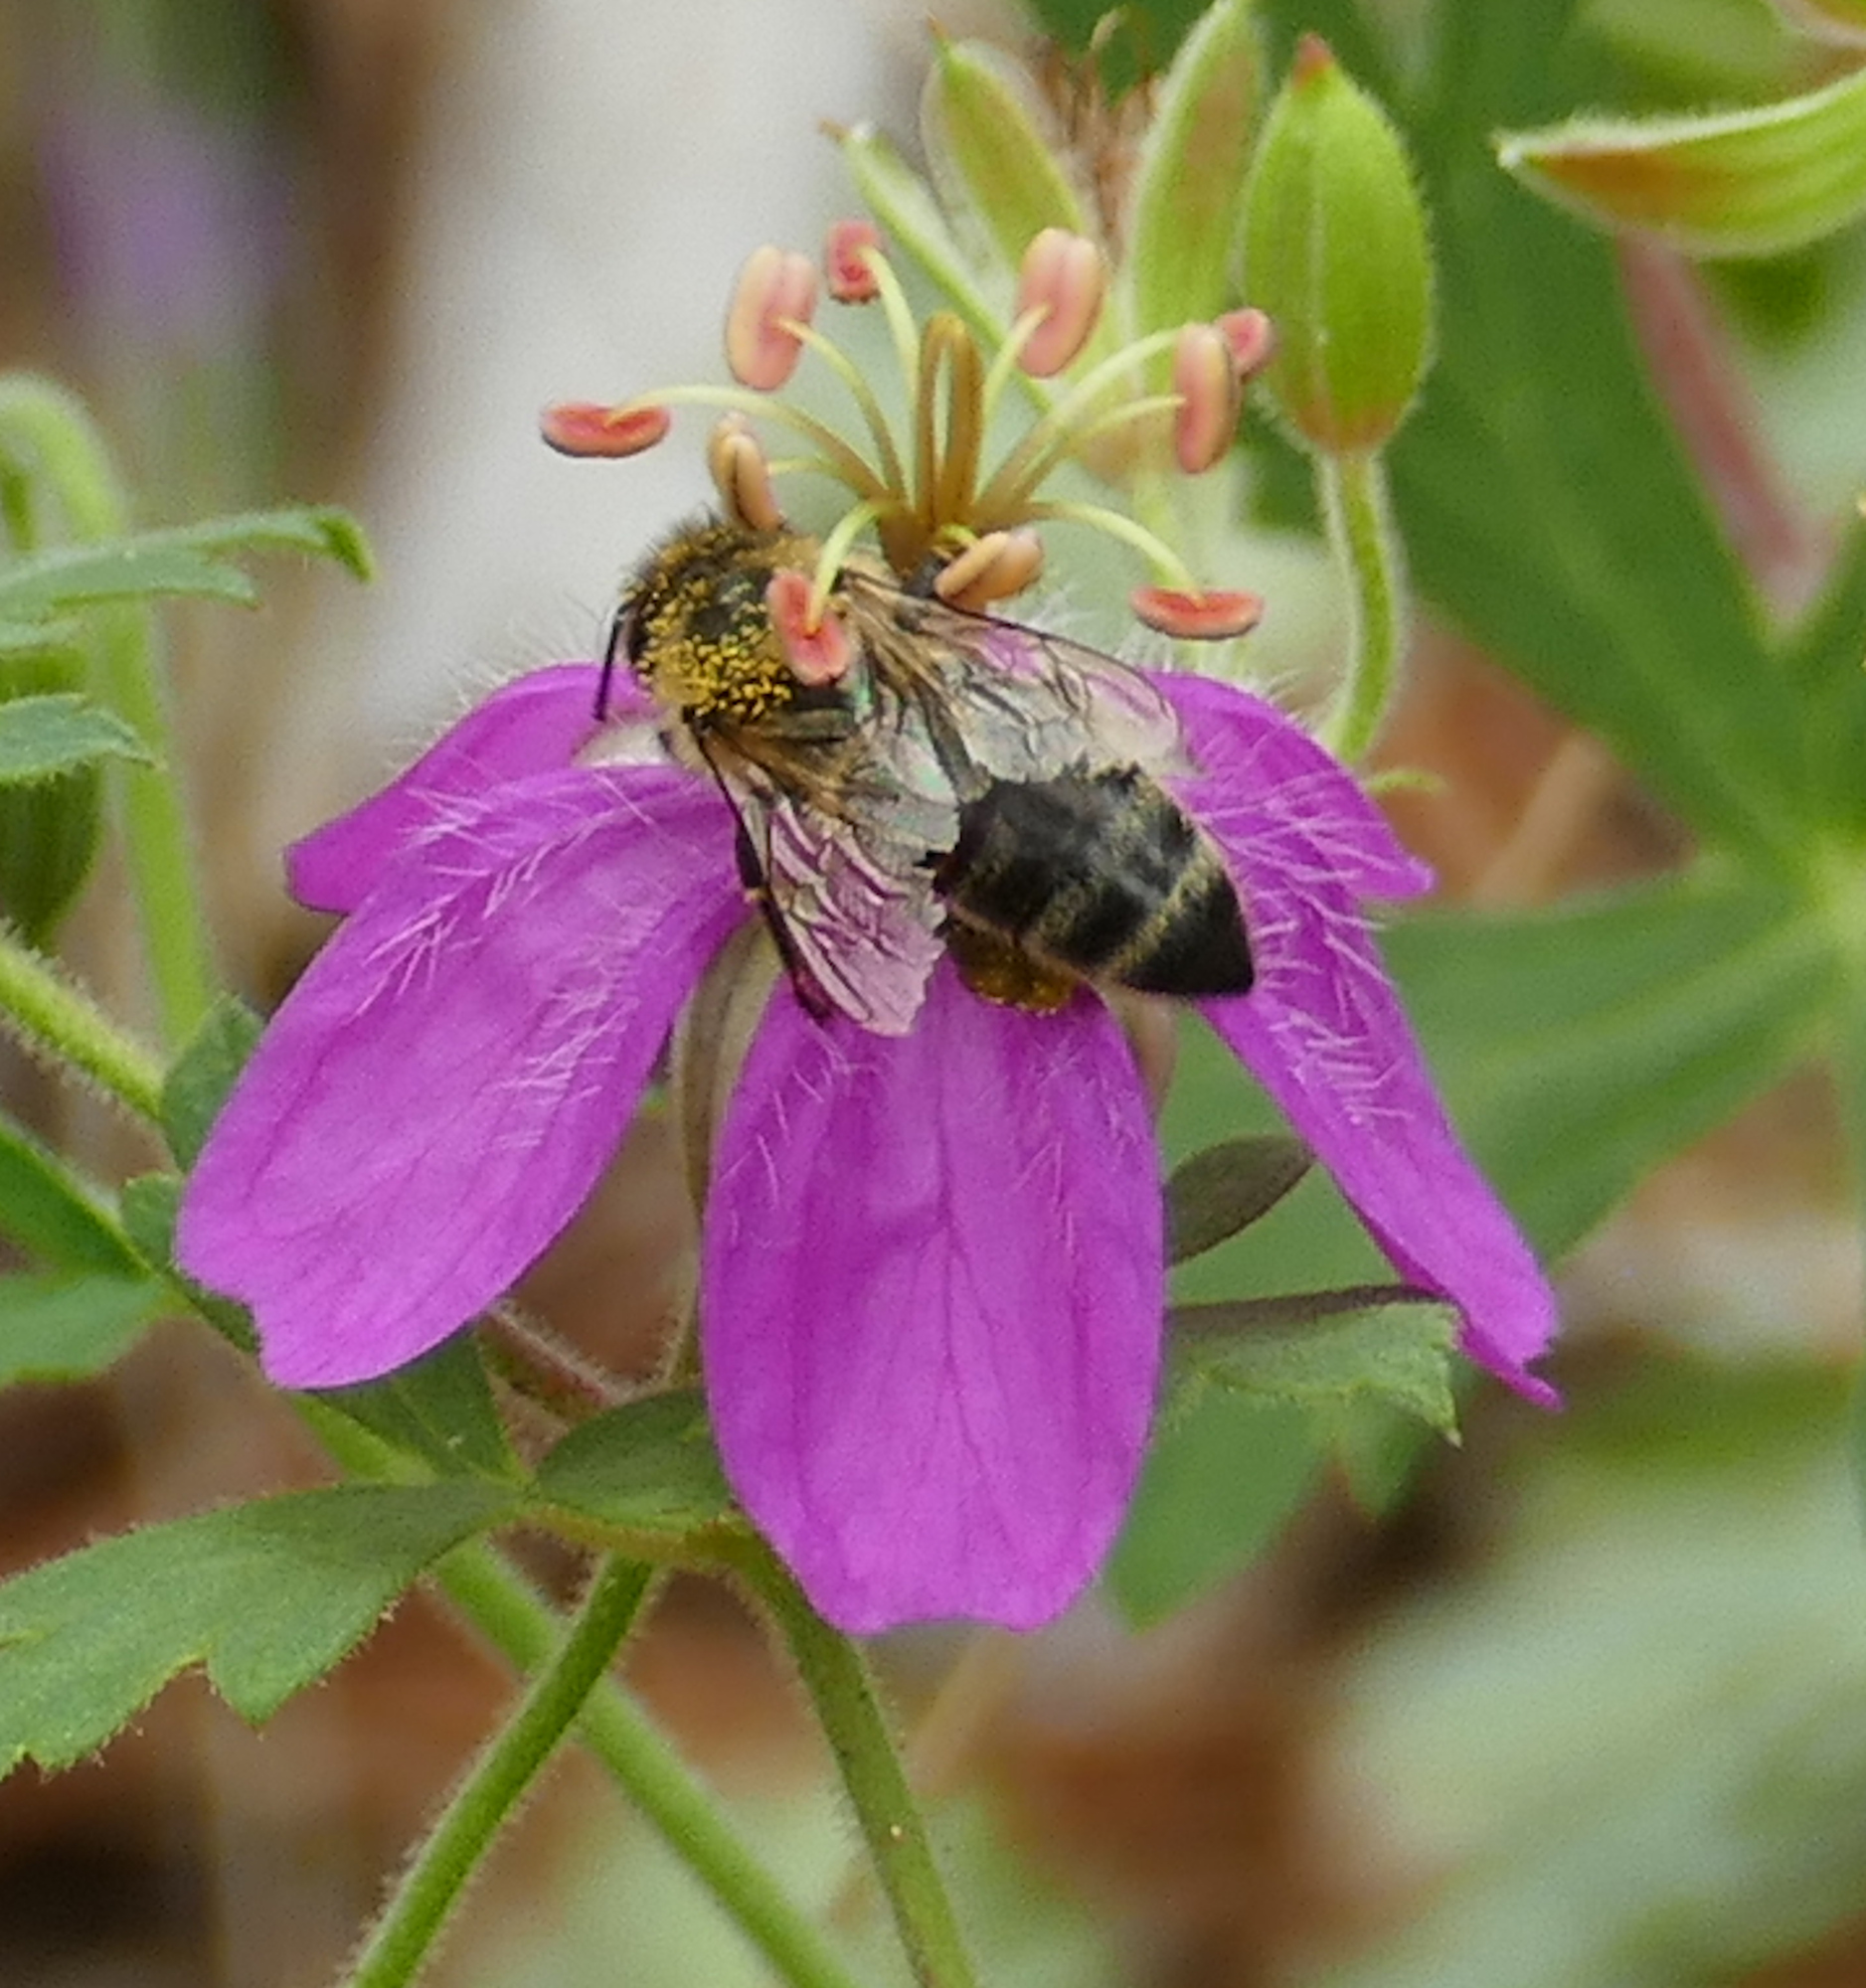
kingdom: Animalia
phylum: Arthropoda
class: Insecta
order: Hymenoptera
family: Apidae
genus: Apis
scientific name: Apis mellifera
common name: Honey bee
